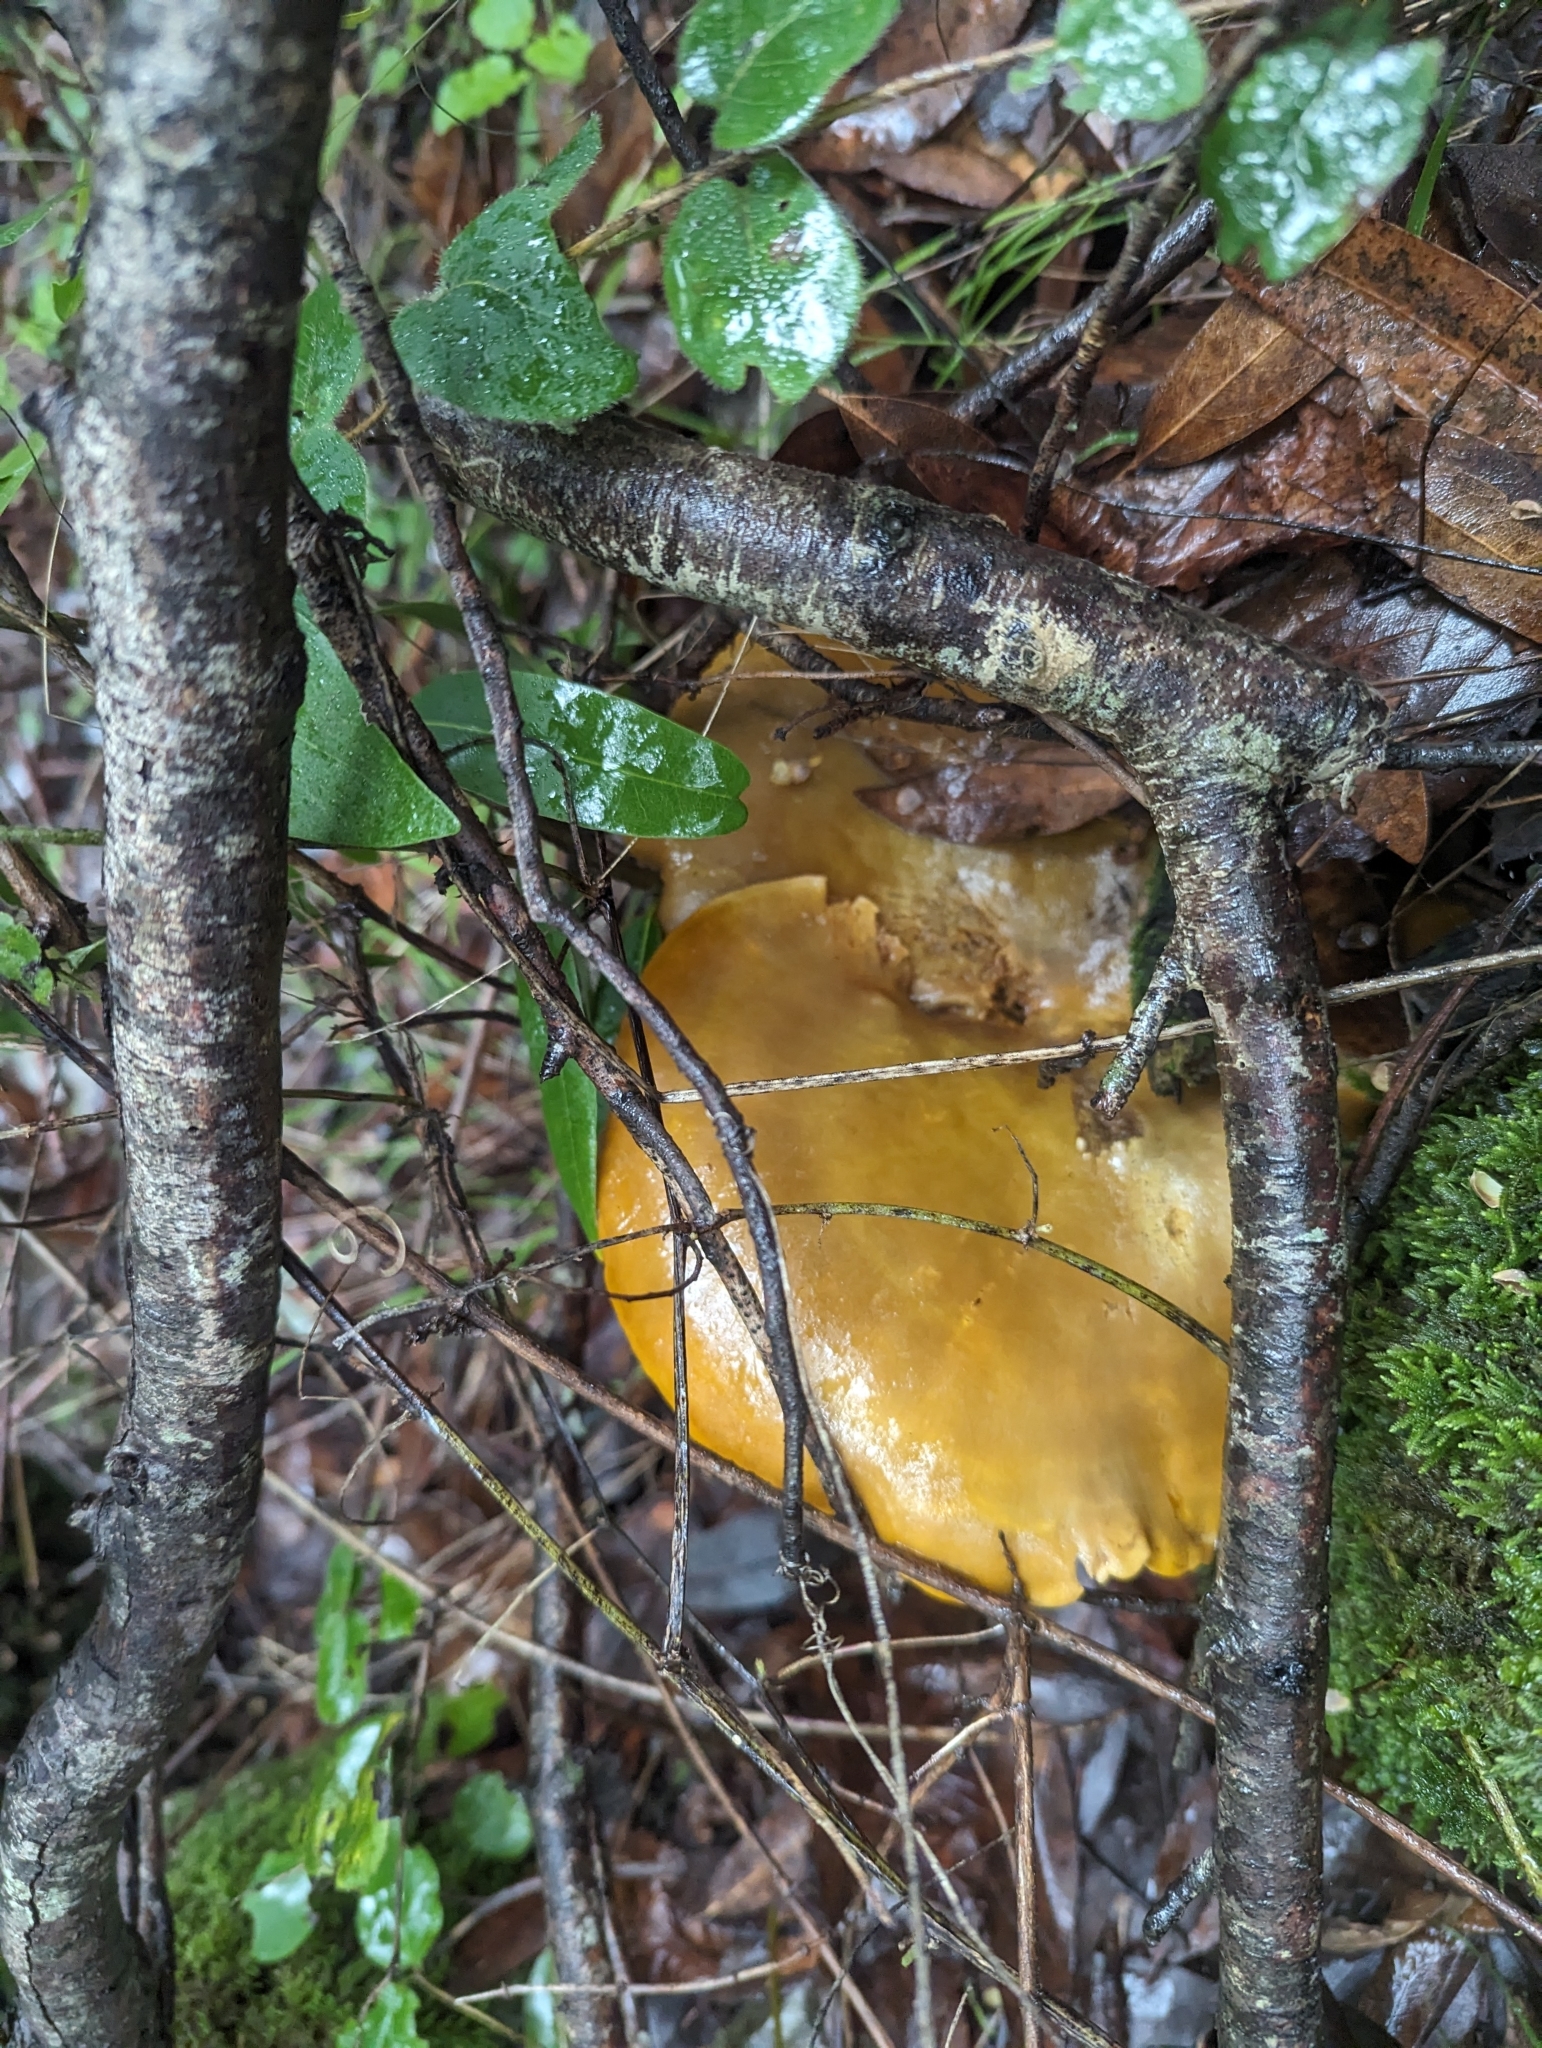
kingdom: Fungi
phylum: Basidiomycota
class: Agaricomycetes
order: Agaricales
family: Omphalotaceae
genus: Omphalotus
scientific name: Omphalotus olivascens
